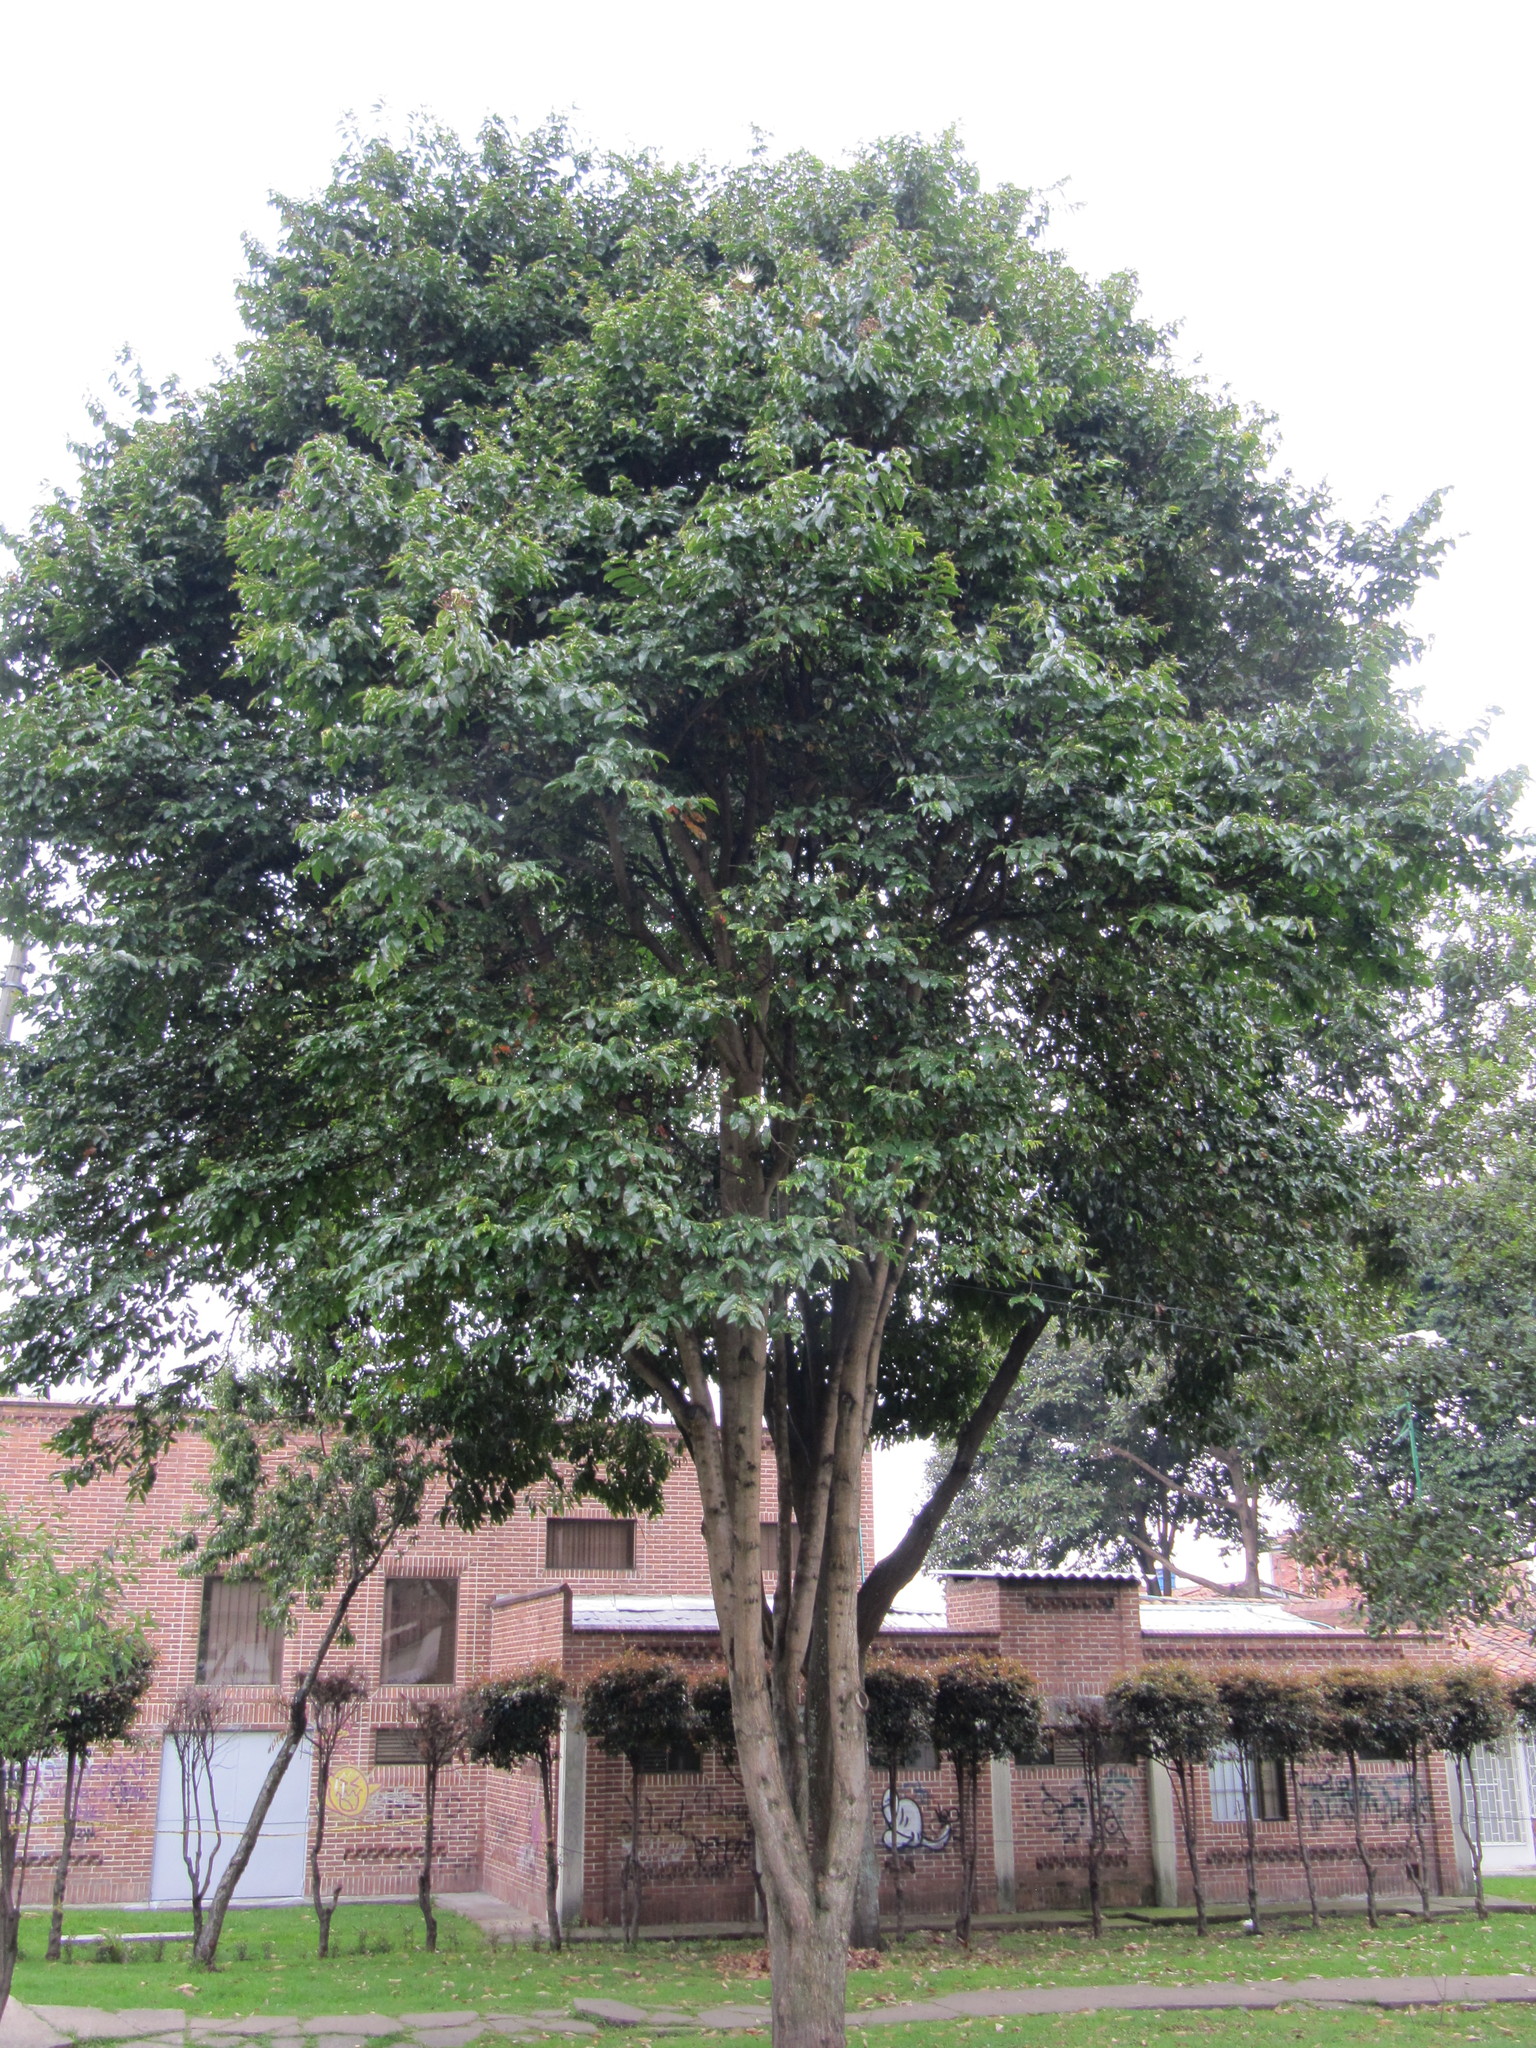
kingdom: Plantae
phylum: Tracheophyta
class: Magnoliopsida
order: Myrtales
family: Lythraceae
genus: Lafoensia
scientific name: Lafoensia acuminata
